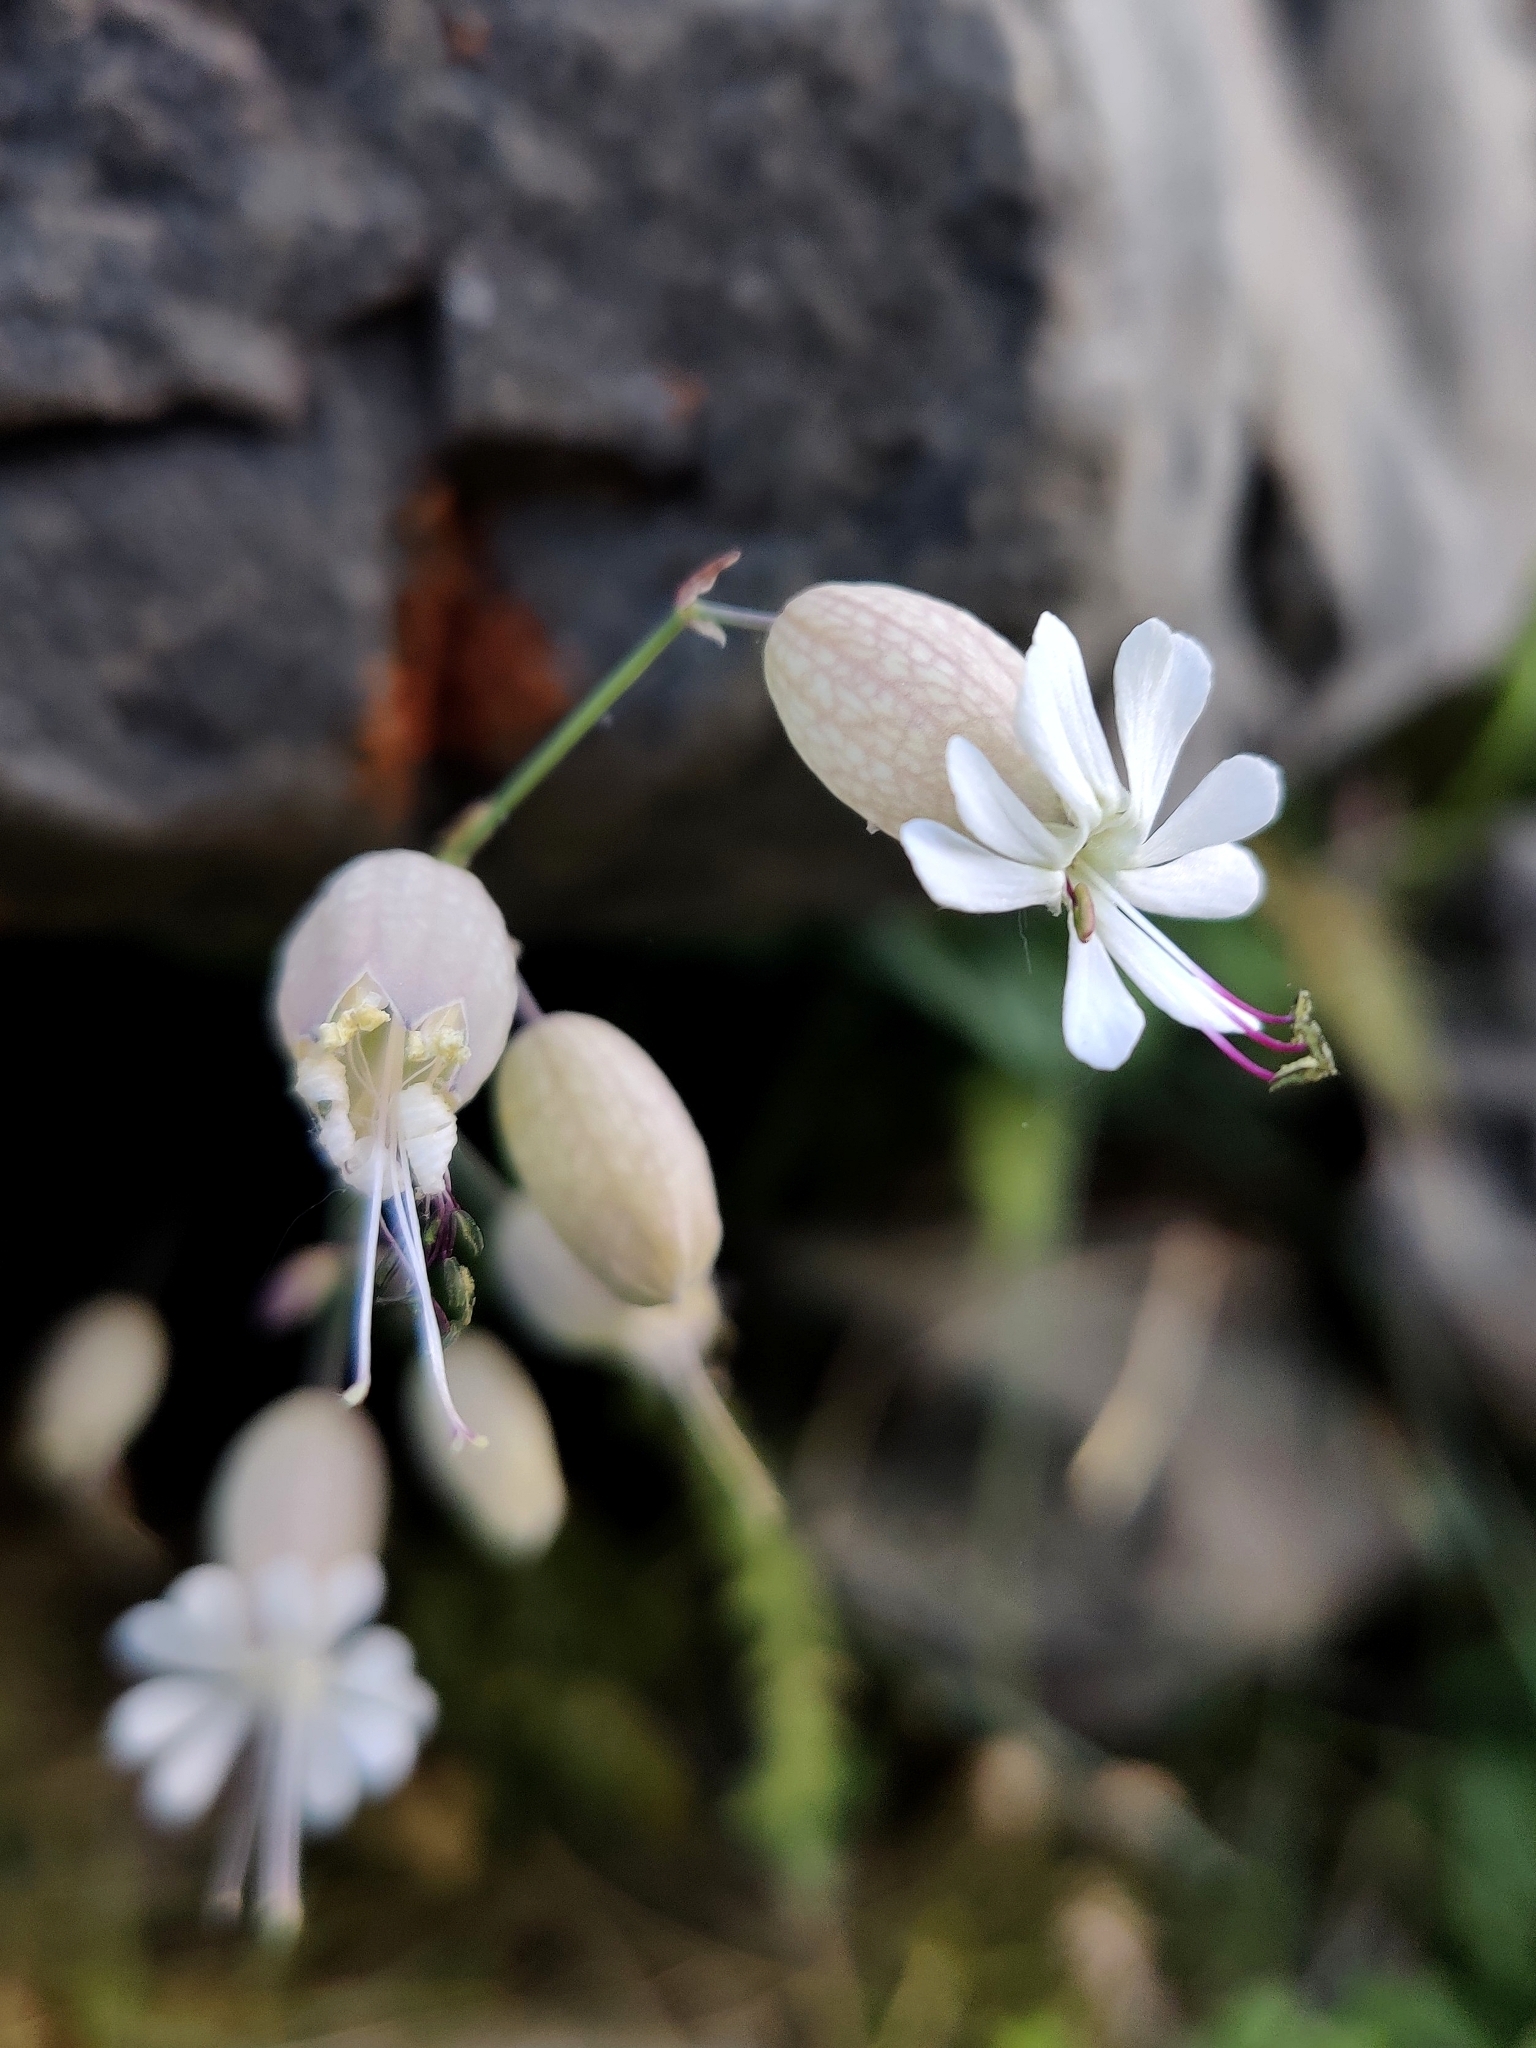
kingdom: Plantae
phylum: Tracheophyta
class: Magnoliopsida
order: Caryophyllales
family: Caryophyllaceae
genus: Silene
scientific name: Silene vulgaris
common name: Bladder campion
